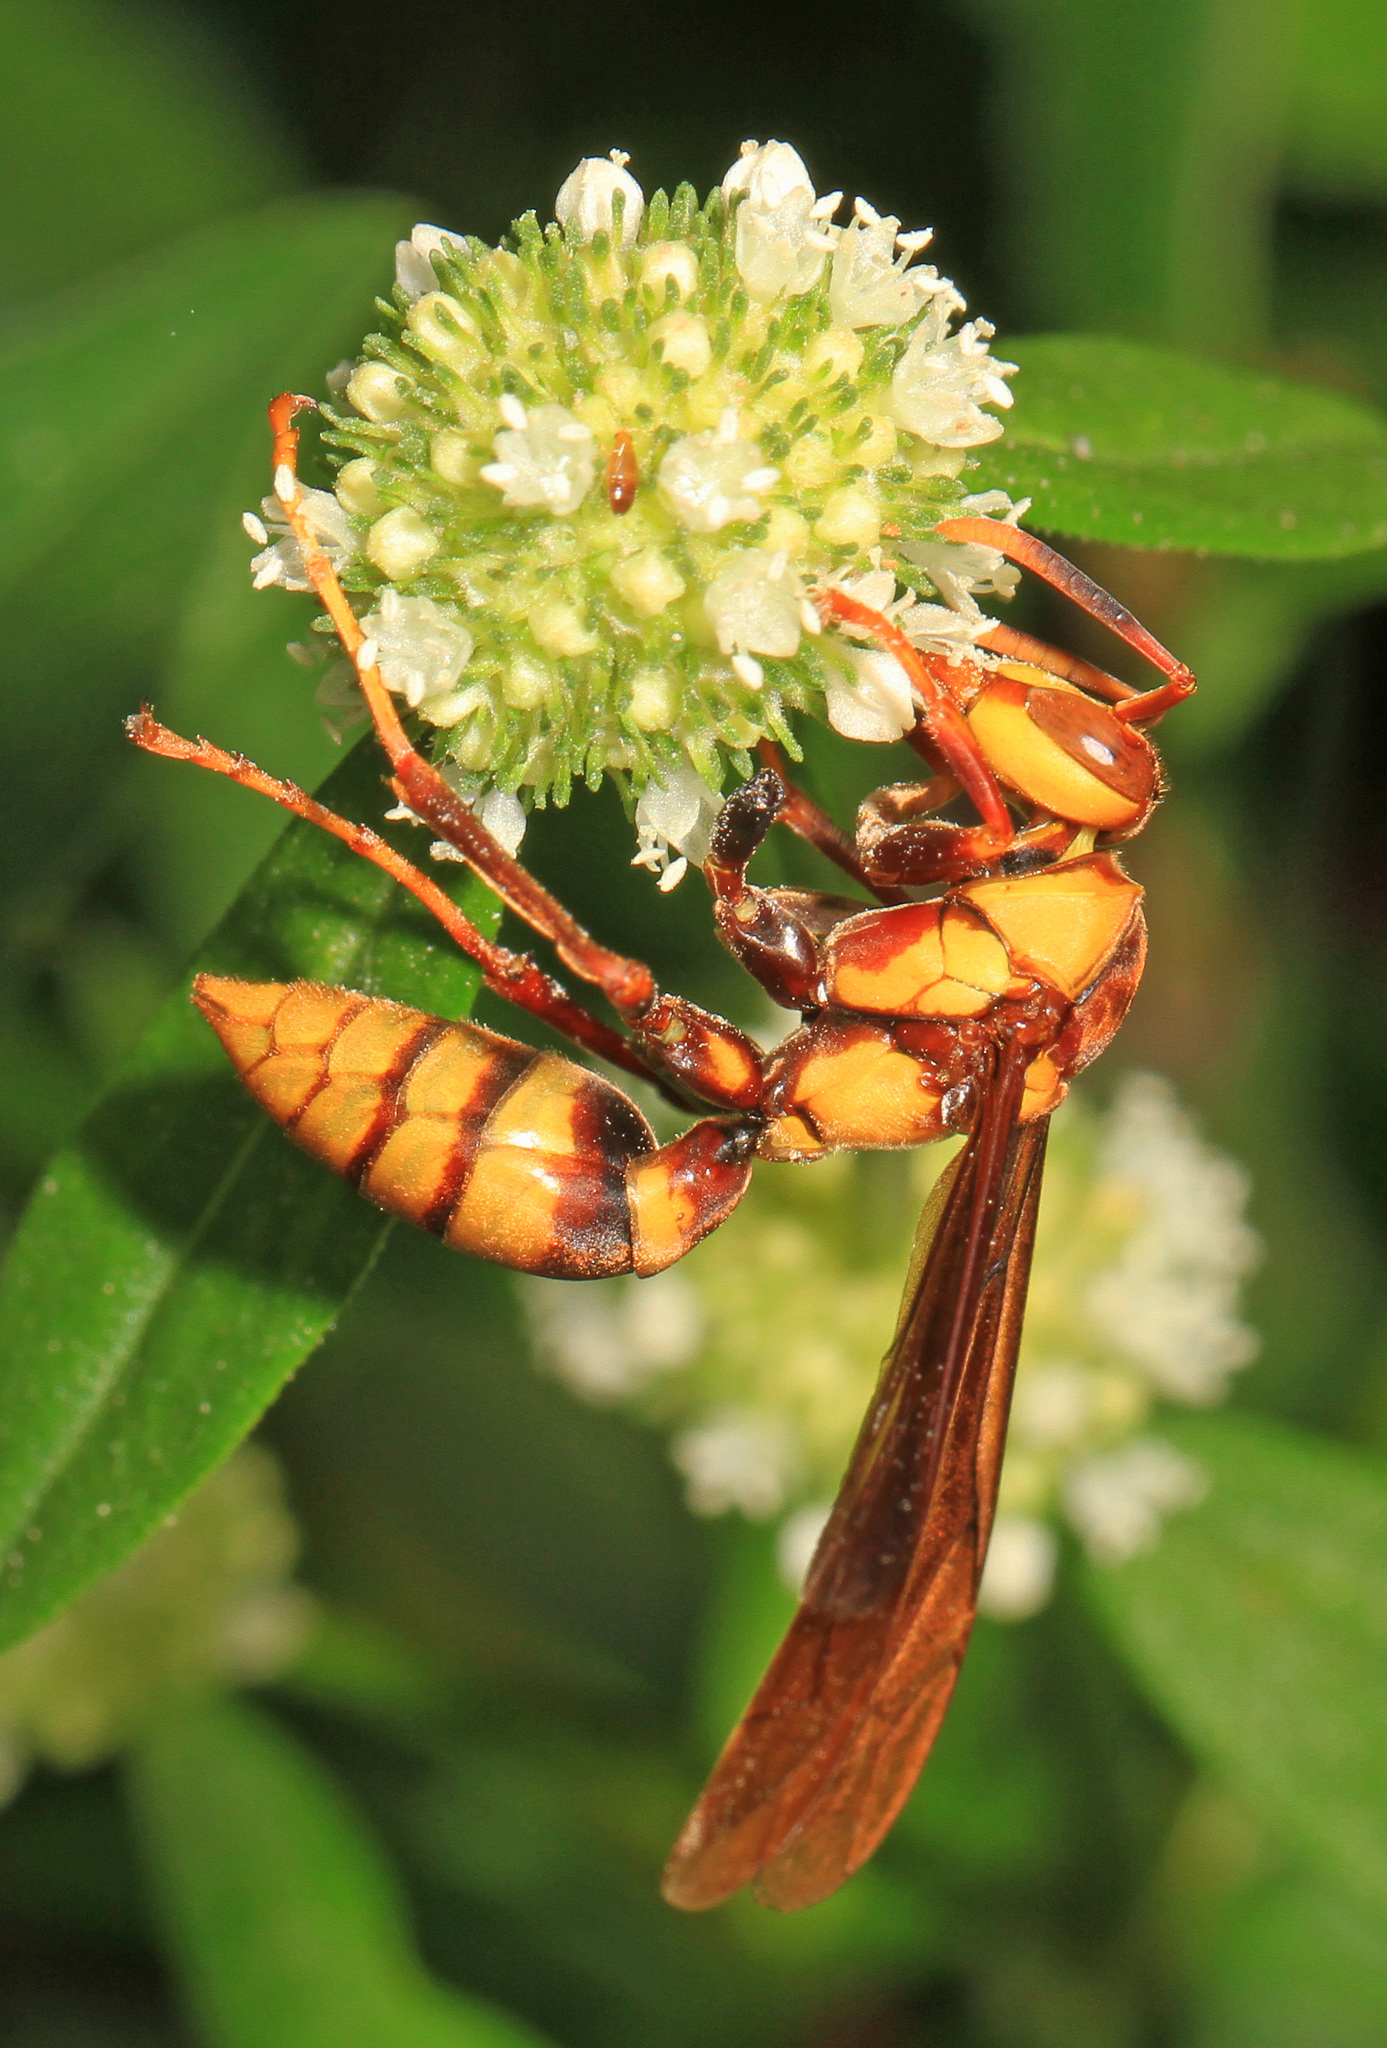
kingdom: Animalia
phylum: Arthropoda
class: Insecta
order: Hymenoptera
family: Eumenidae
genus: Polistes
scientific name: Polistes major
